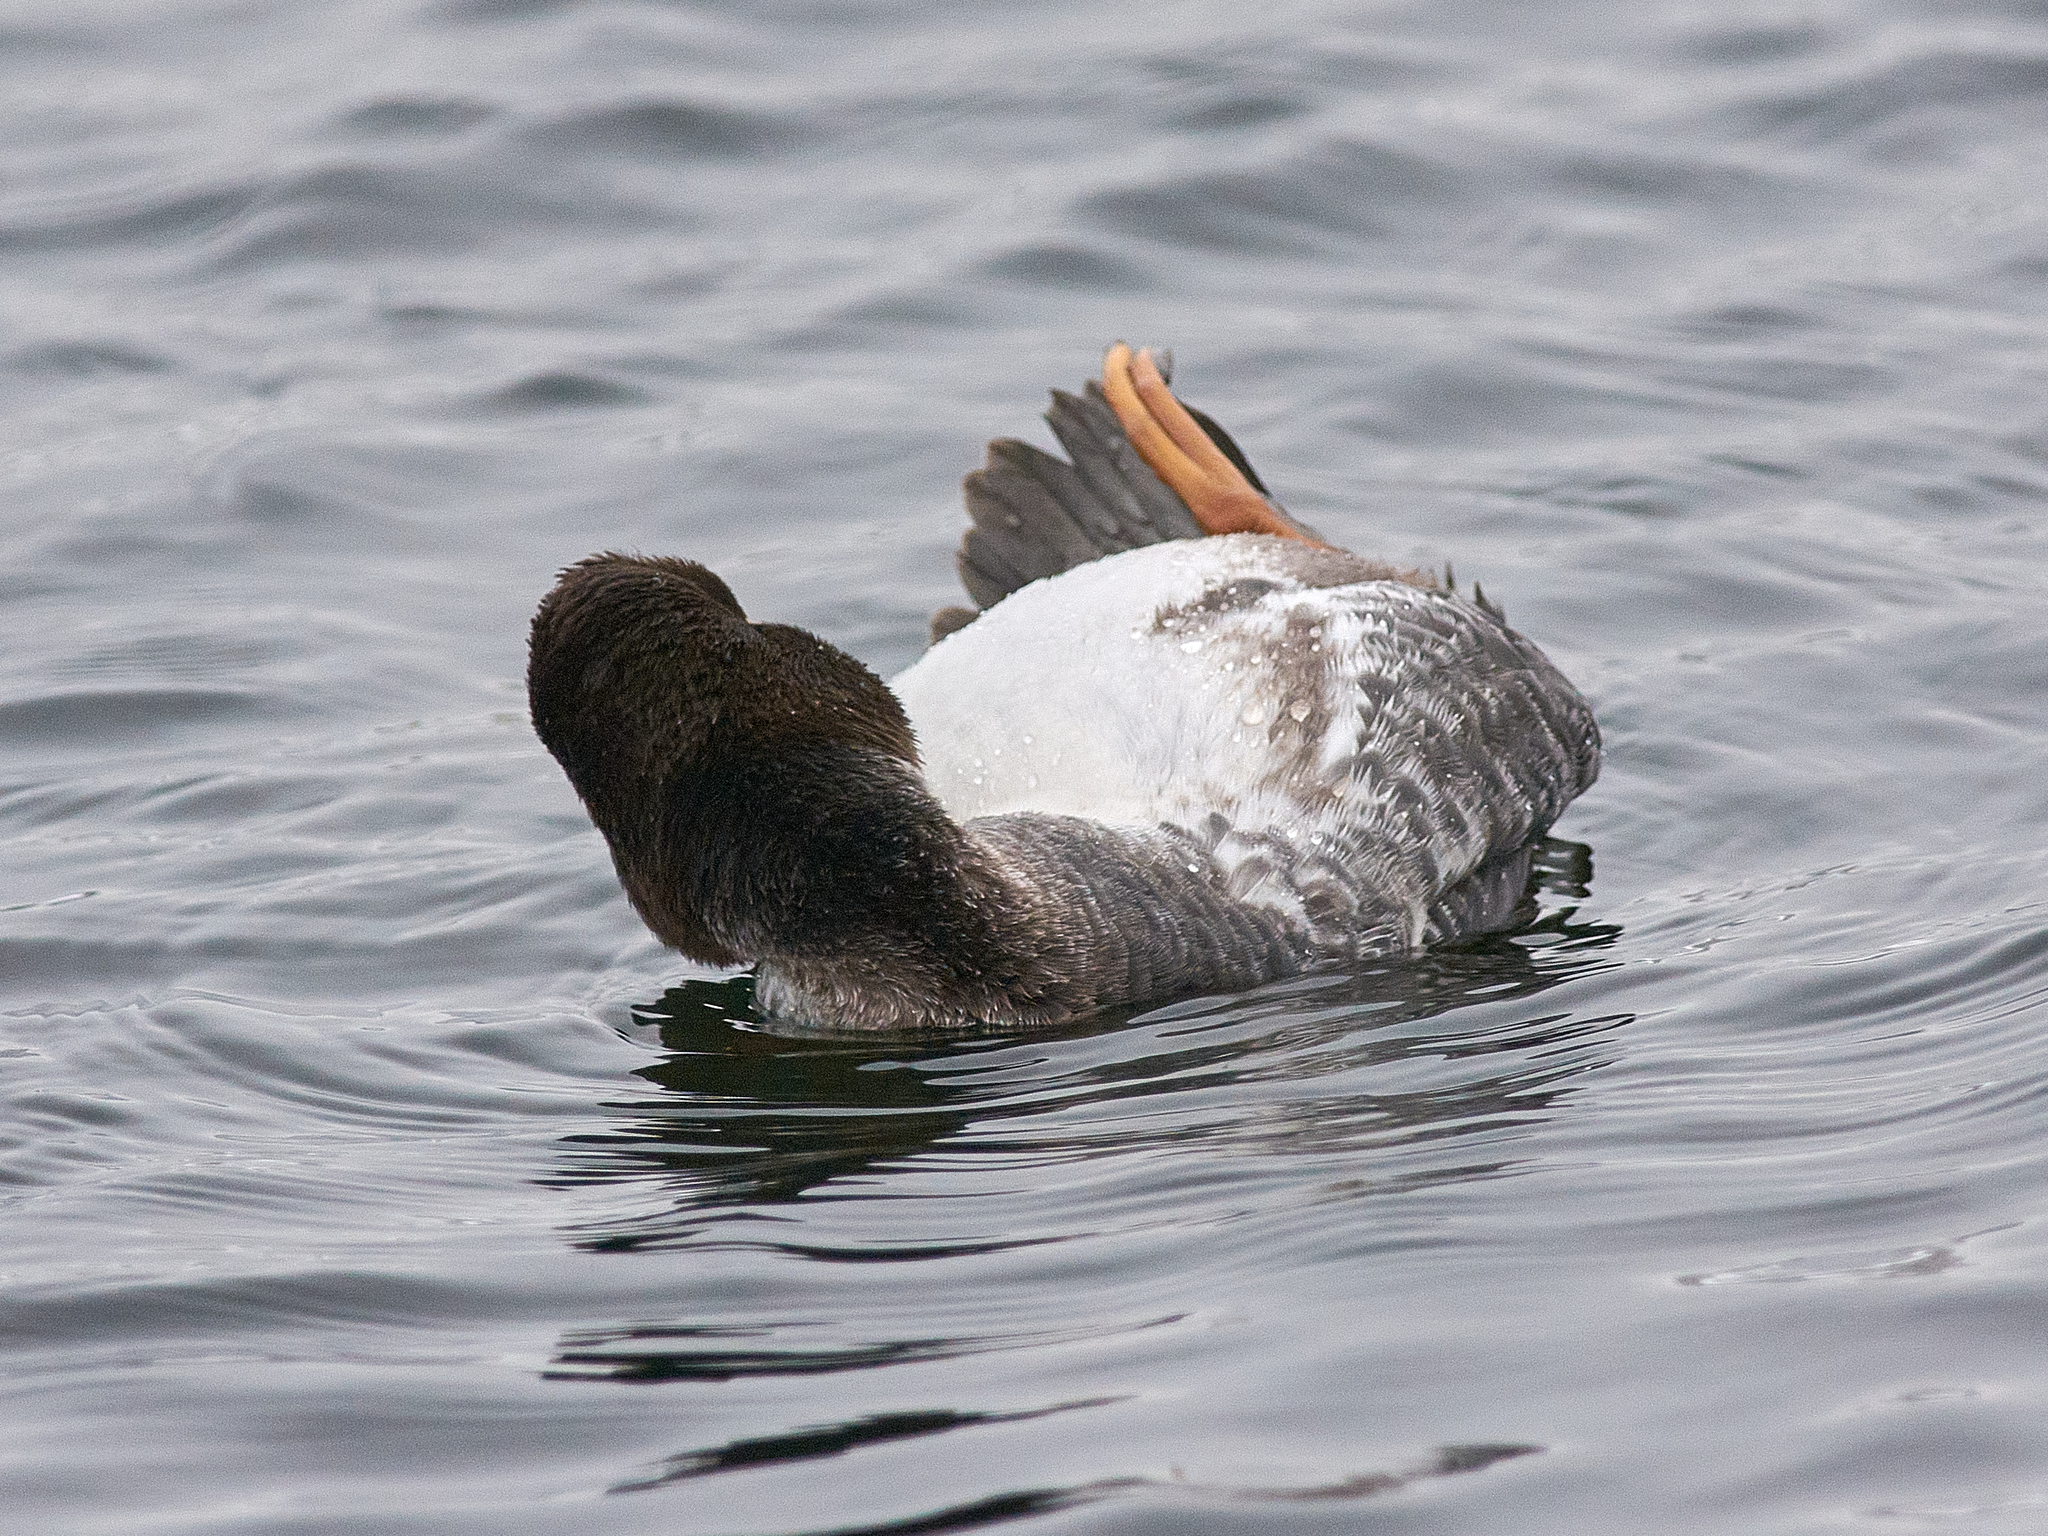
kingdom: Animalia
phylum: Chordata
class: Aves
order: Anseriformes
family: Anatidae
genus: Bucephala
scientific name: Bucephala clangula
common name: Common goldeneye
